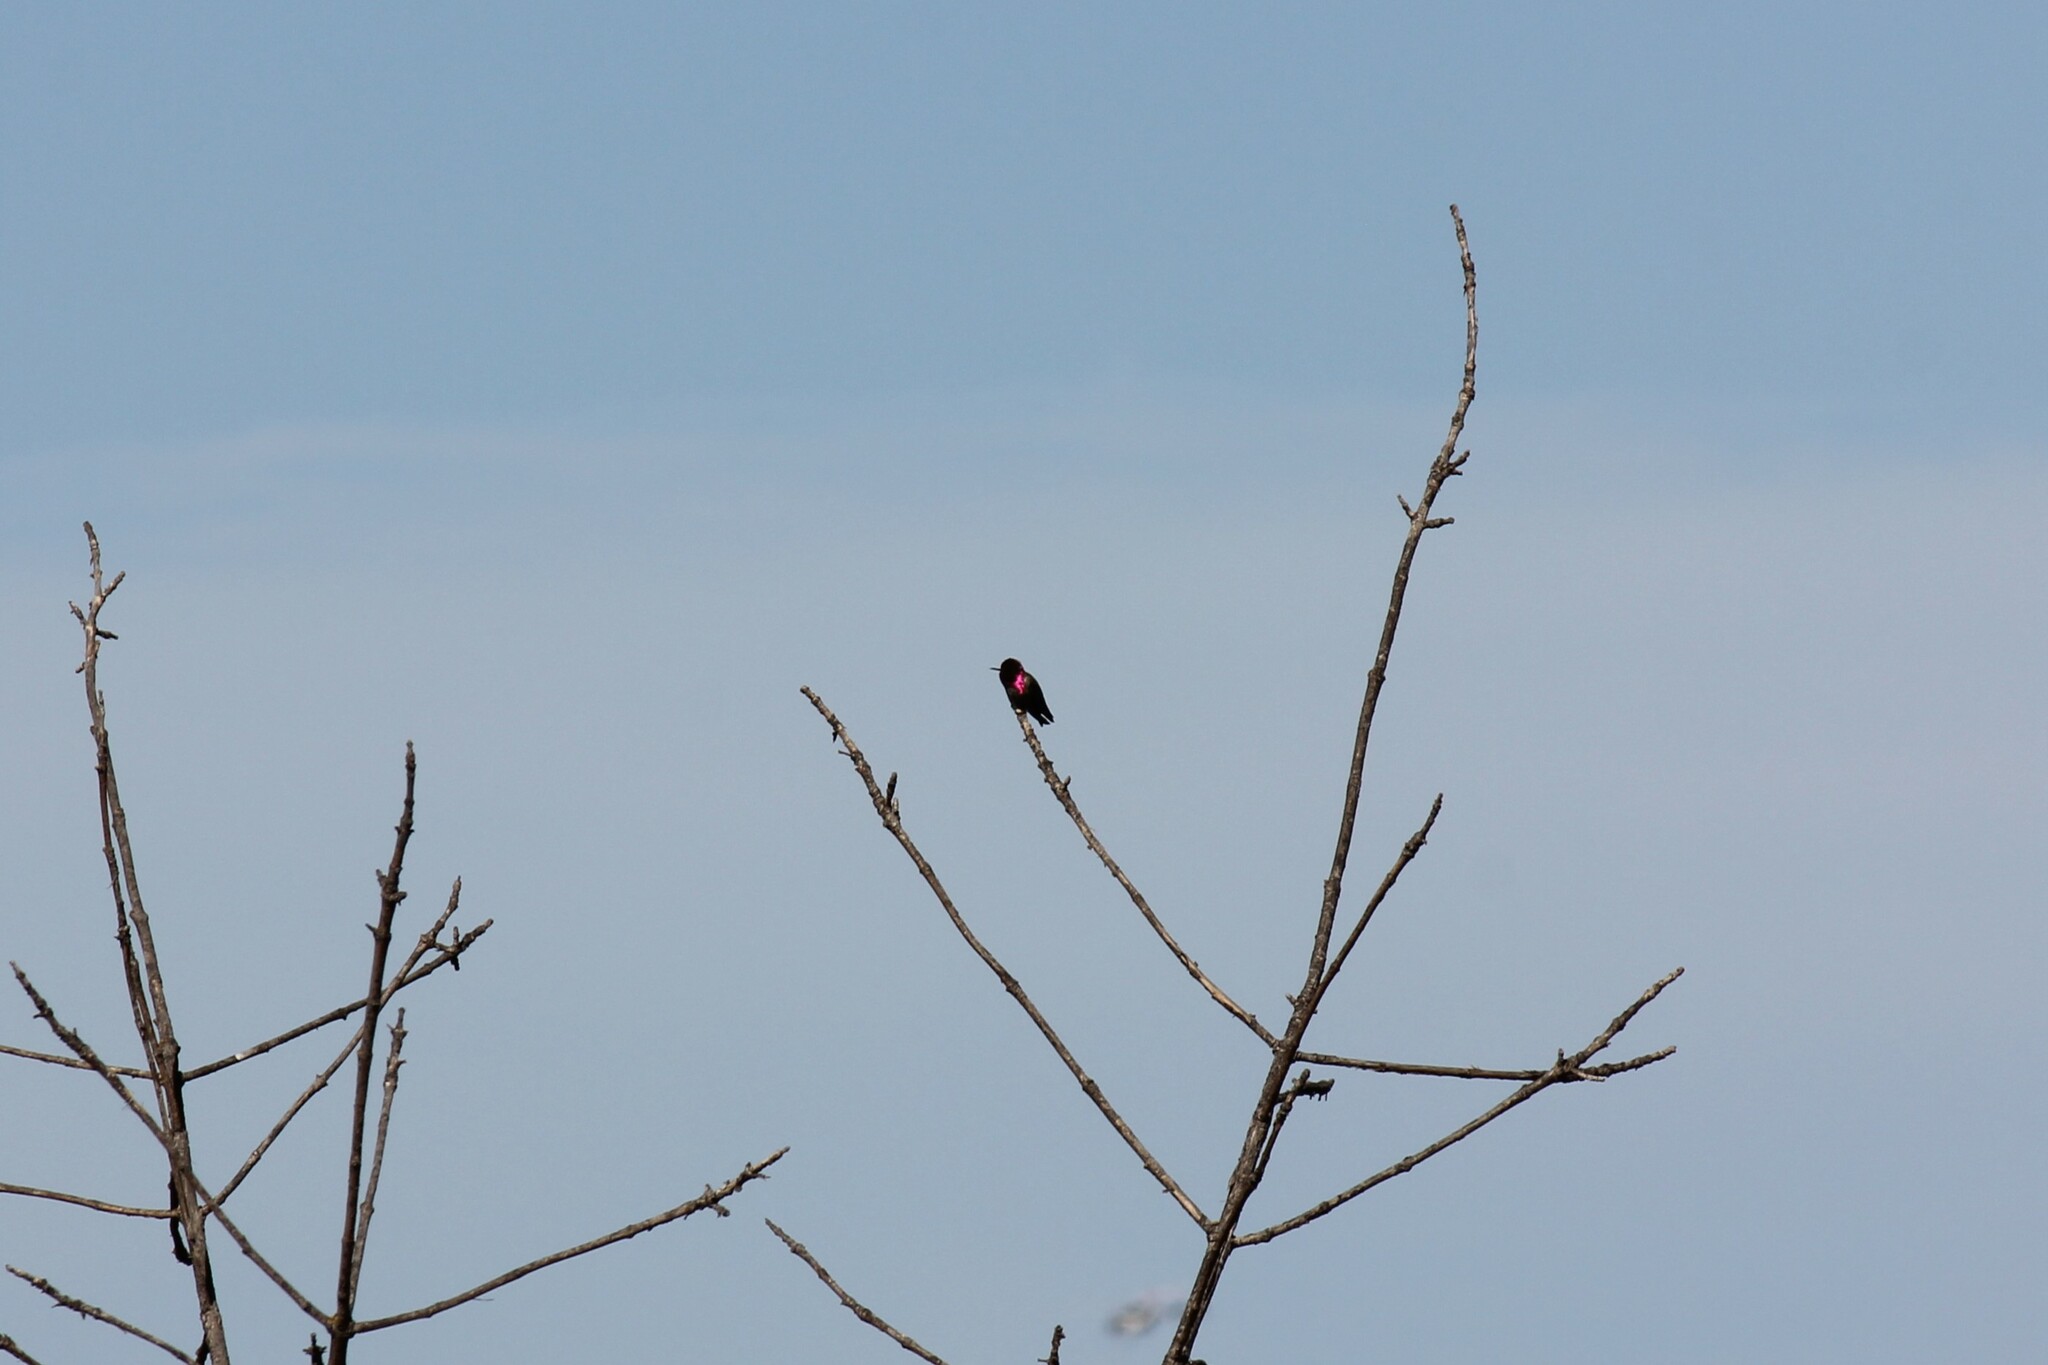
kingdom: Animalia
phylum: Chordata
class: Aves
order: Apodiformes
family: Trochilidae
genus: Calypte
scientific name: Calypte anna
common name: Anna's hummingbird
